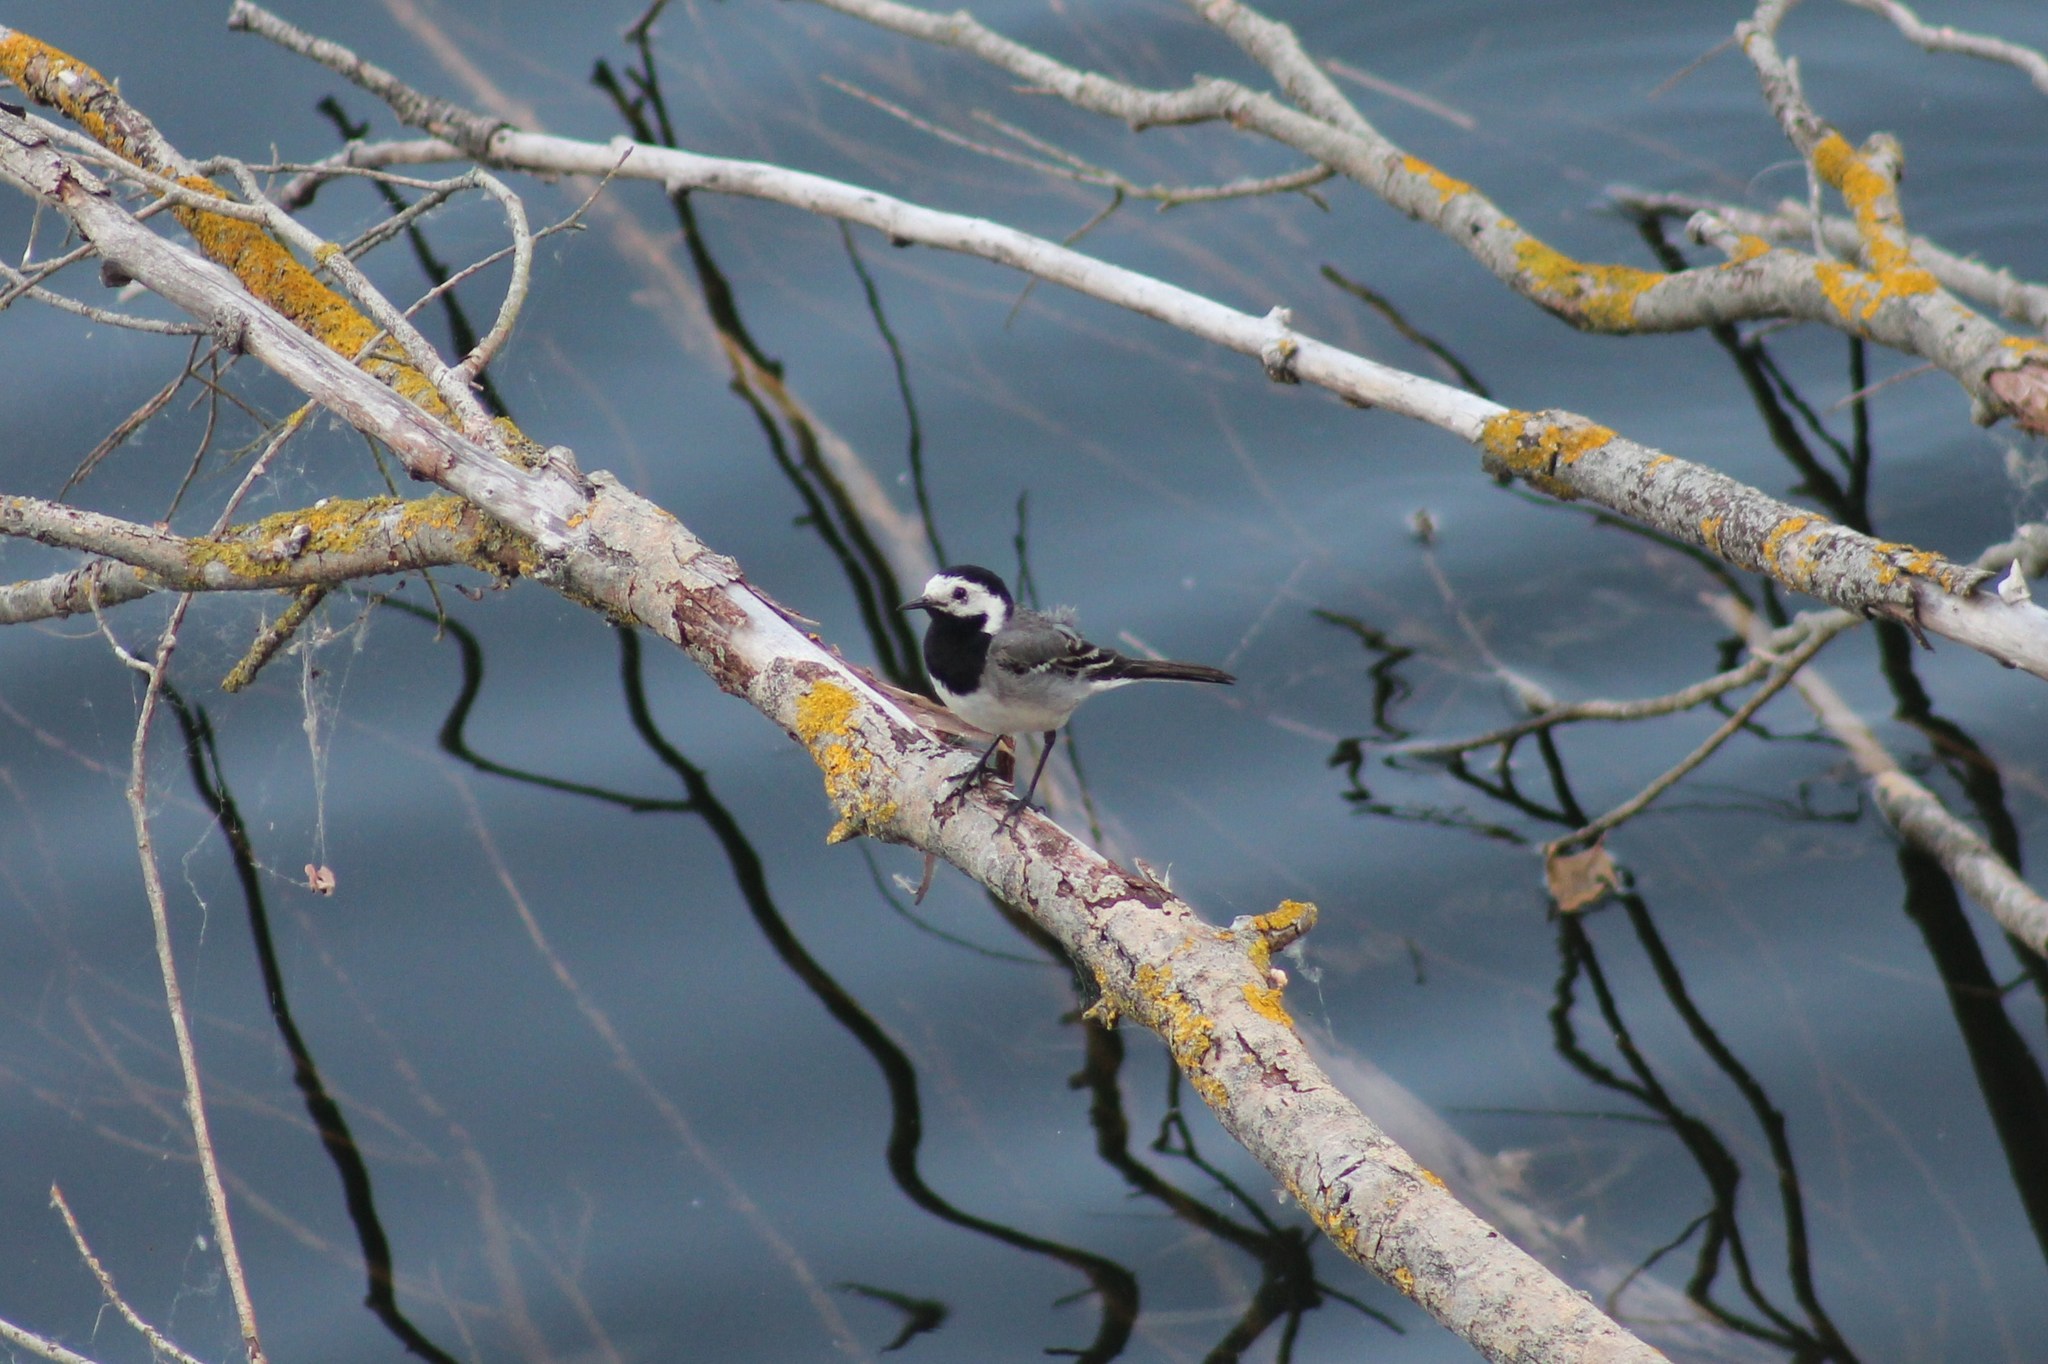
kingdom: Animalia
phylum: Chordata
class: Aves
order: Passeriformes
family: Motacillidae
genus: Motacilla
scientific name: Motacilla alba
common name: White wagtail
